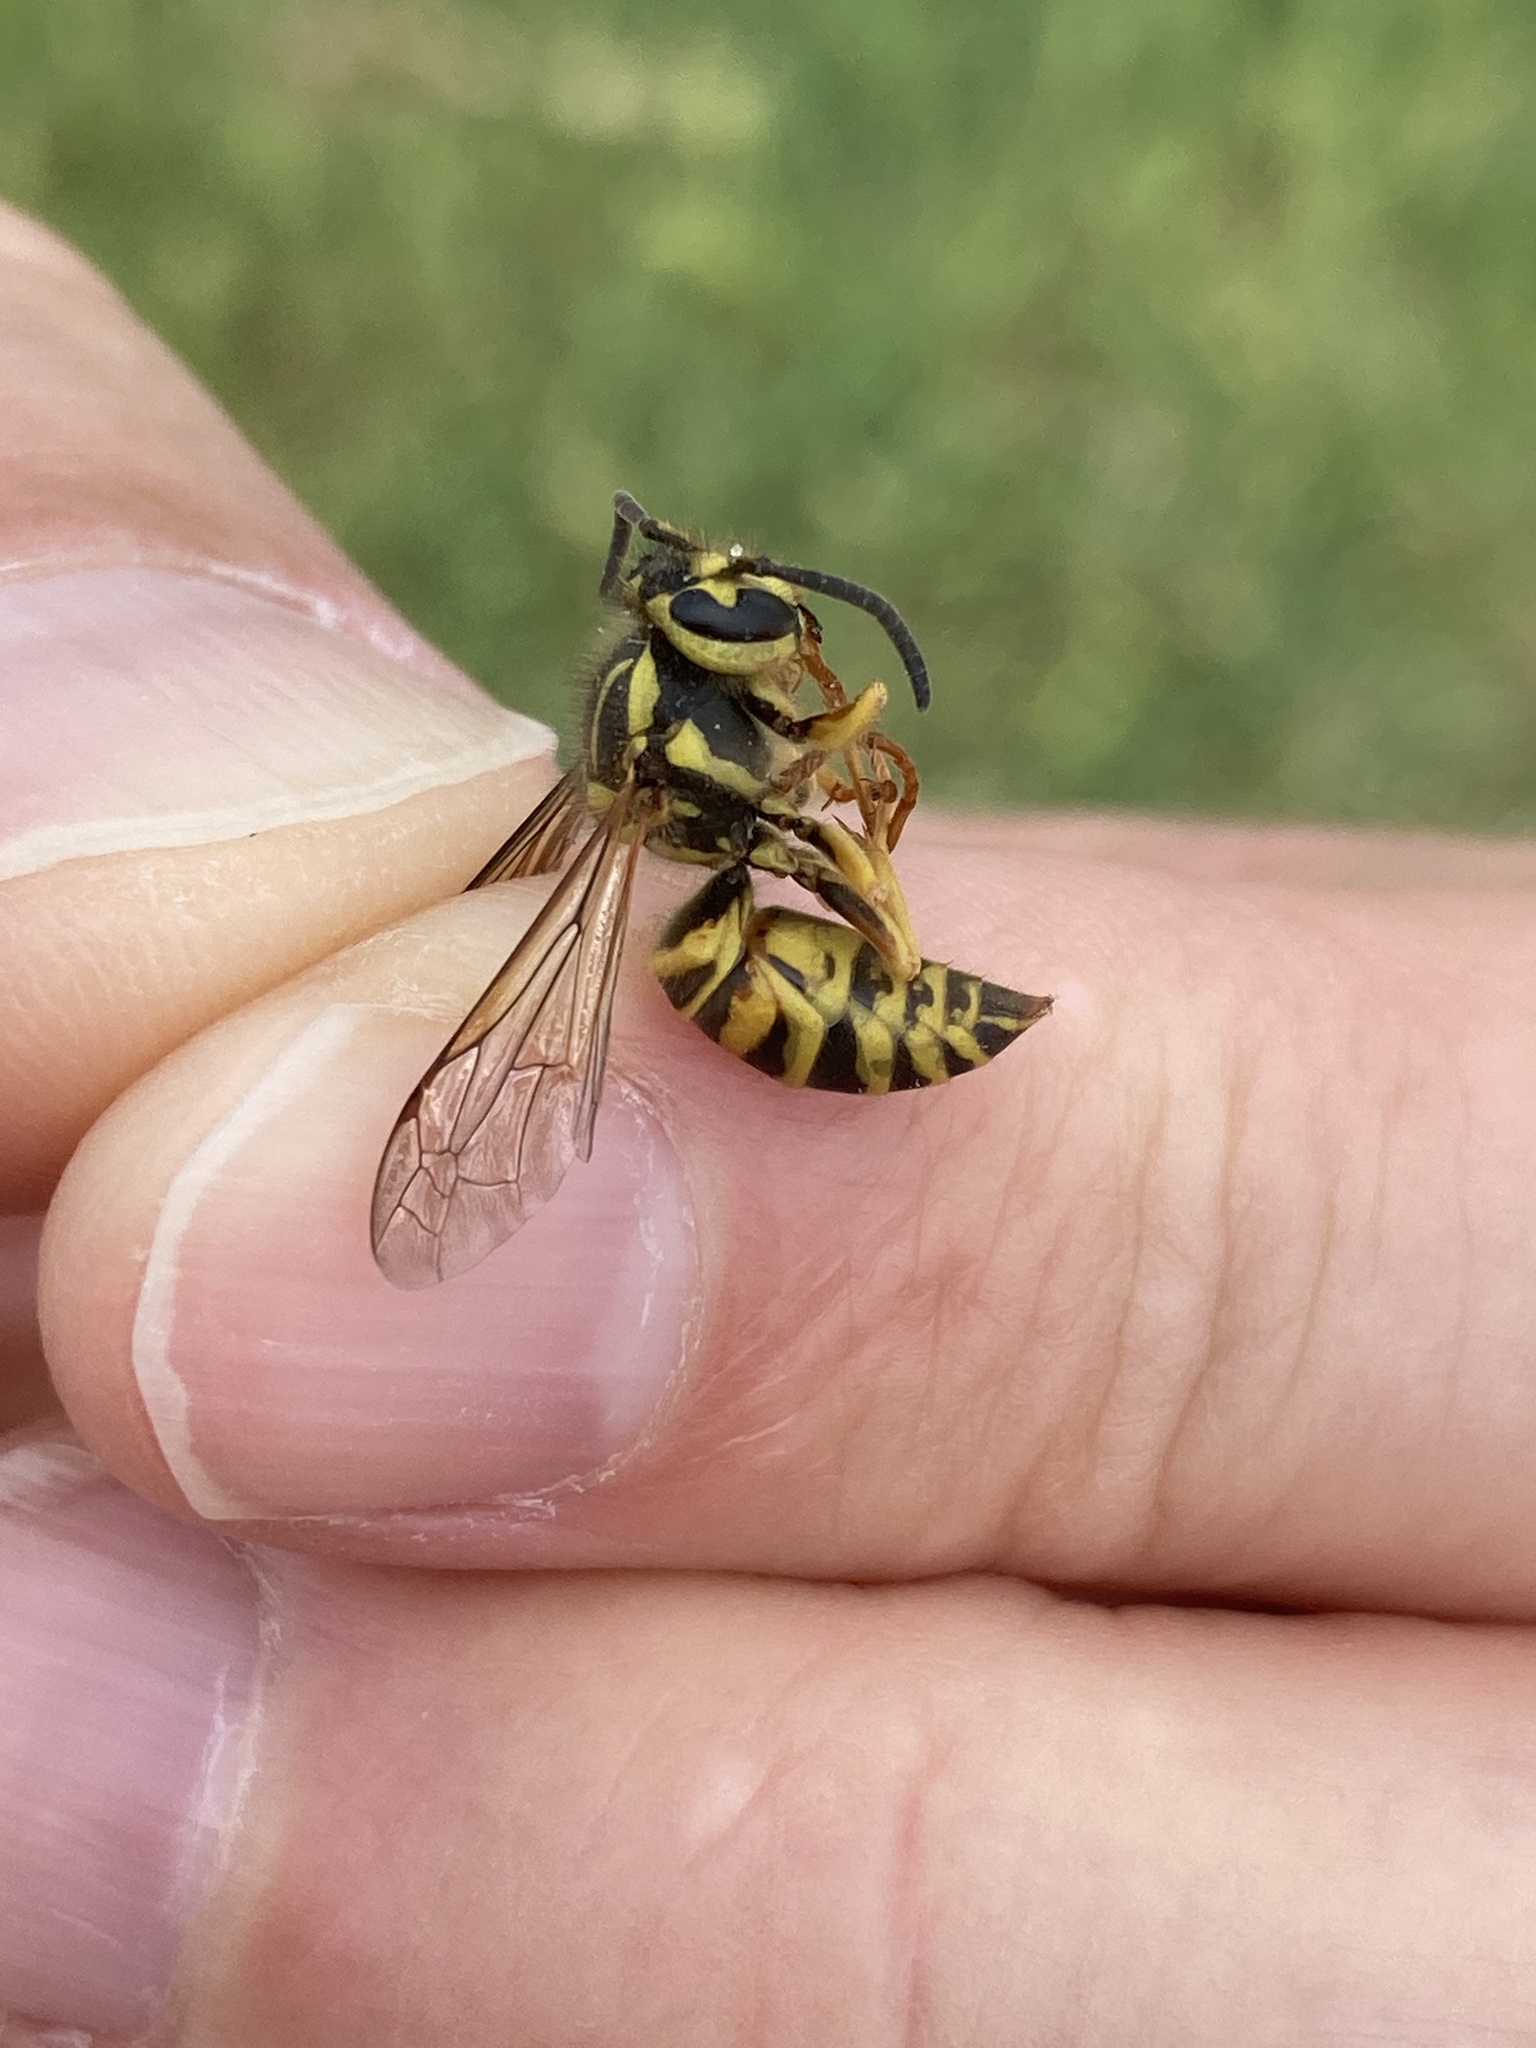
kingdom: Animalia
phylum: Arthropoda
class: Insecta
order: Hymenoptera
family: Vespidae
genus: Vespula
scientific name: Vespula squamosa
